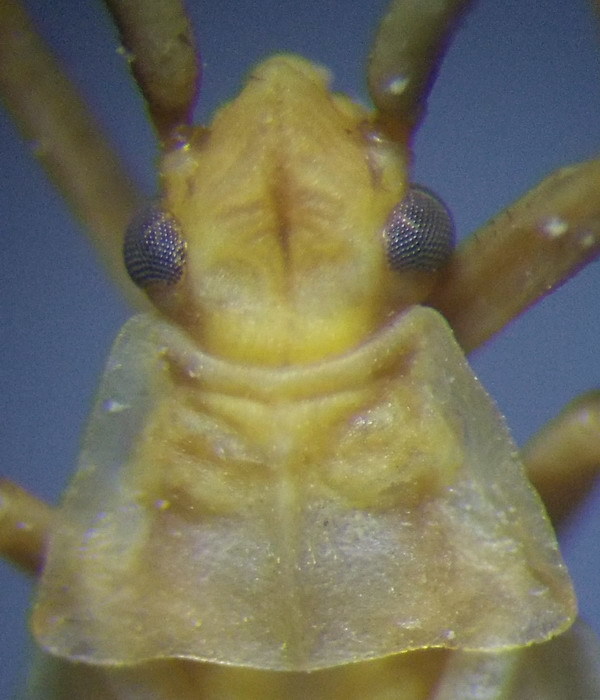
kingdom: Animalia
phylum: Arthropoda
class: Insecta
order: Hemiptera
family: Miridae
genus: Acetropis
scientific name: Acetropis carinata
